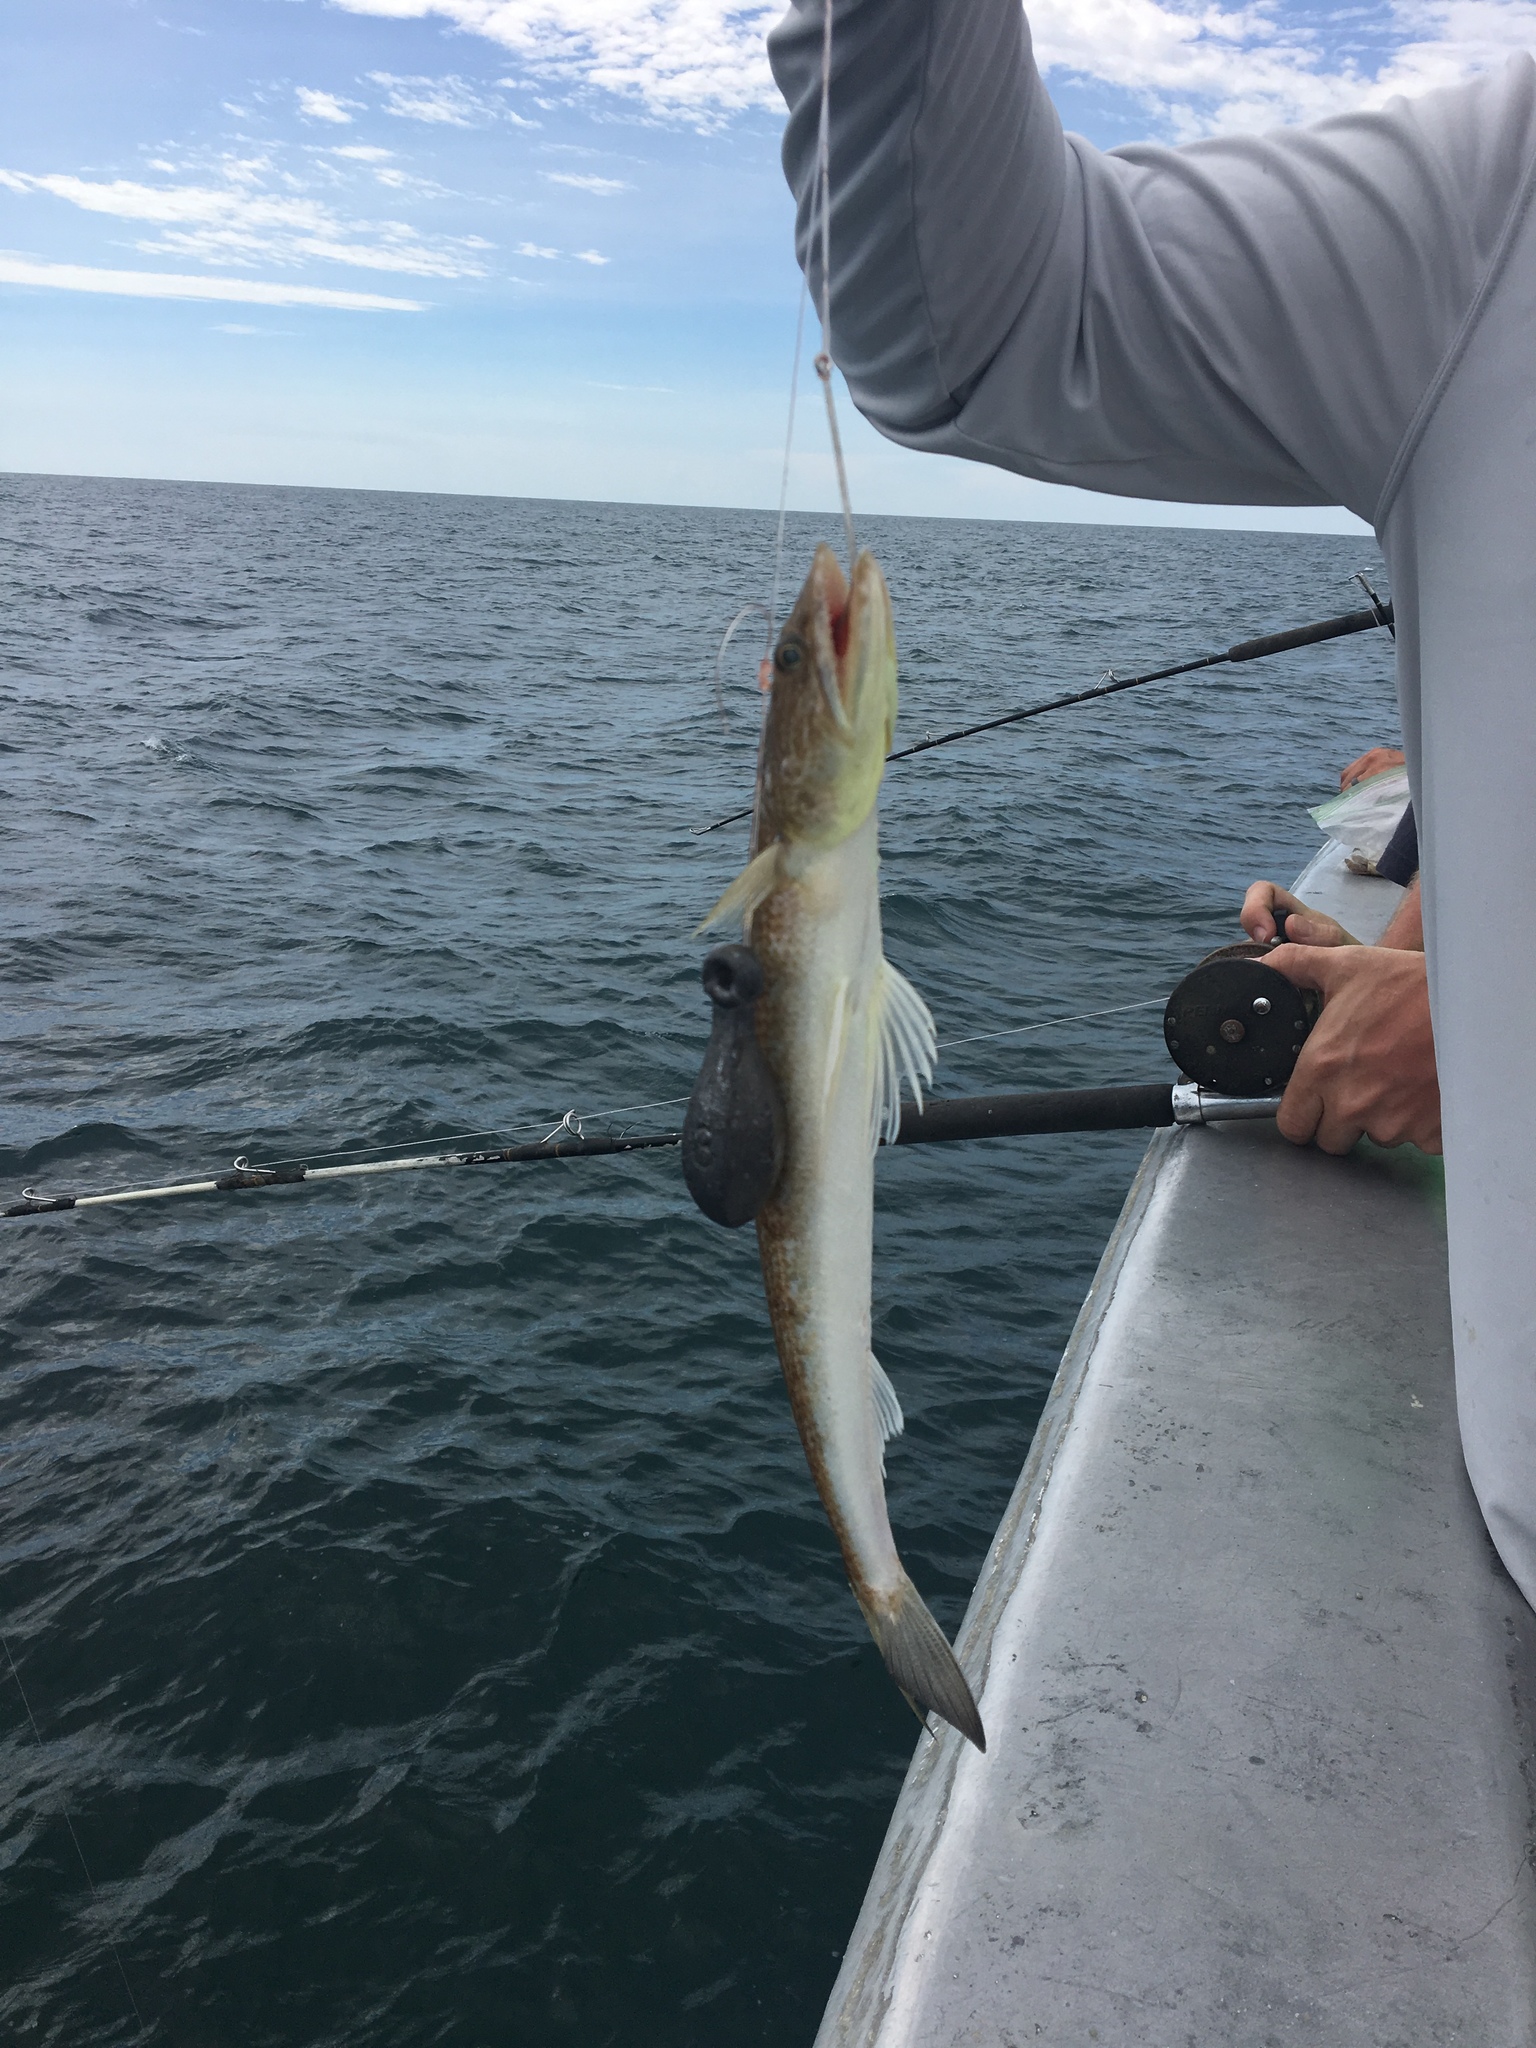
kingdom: Animalia
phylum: Chordata
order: Aulopiformes
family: Synodontidae
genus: Synodus
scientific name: Synodus foetens
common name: Inshore lizardfish
